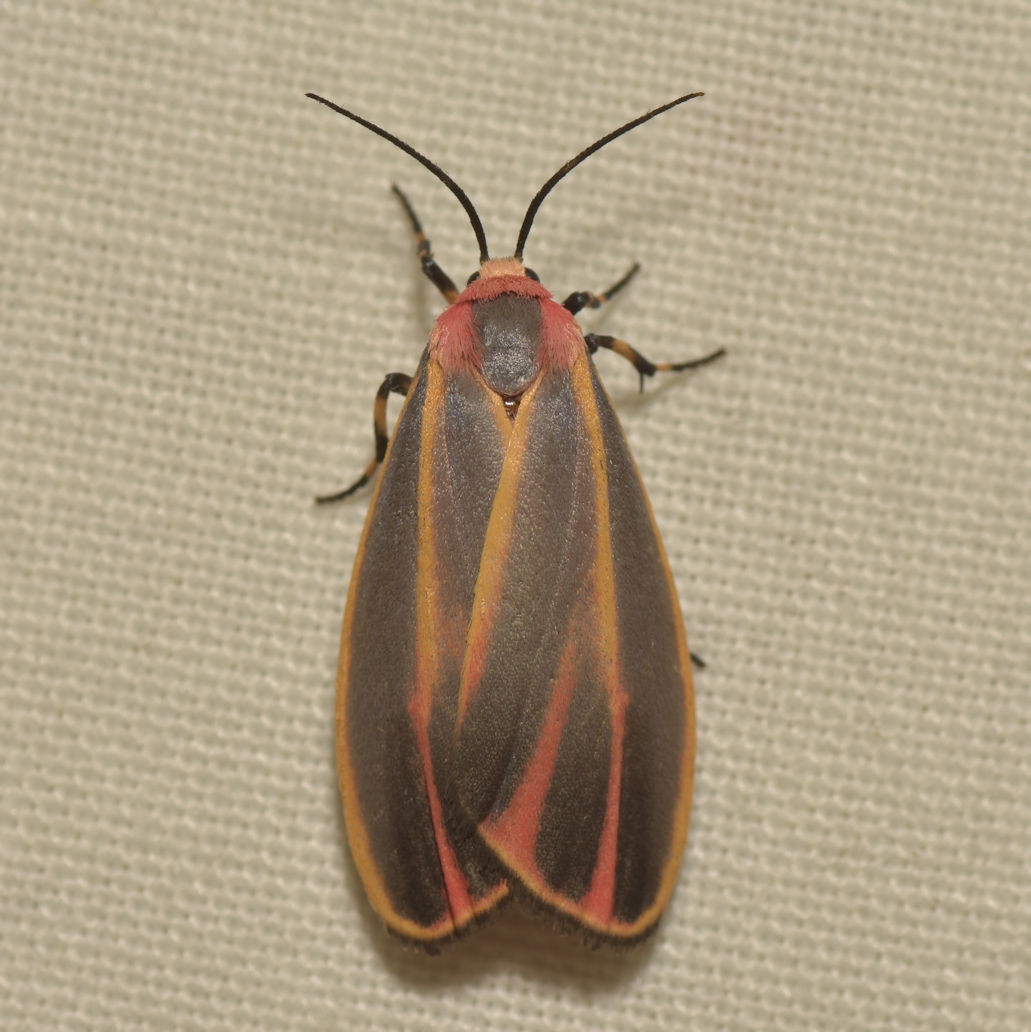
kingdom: Animalia
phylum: Arthropoda
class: Insecta
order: Lepidoptera
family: Erebidae
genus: Hypoprepia
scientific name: Hypoprepia fucosa
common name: Painted lichen moth
